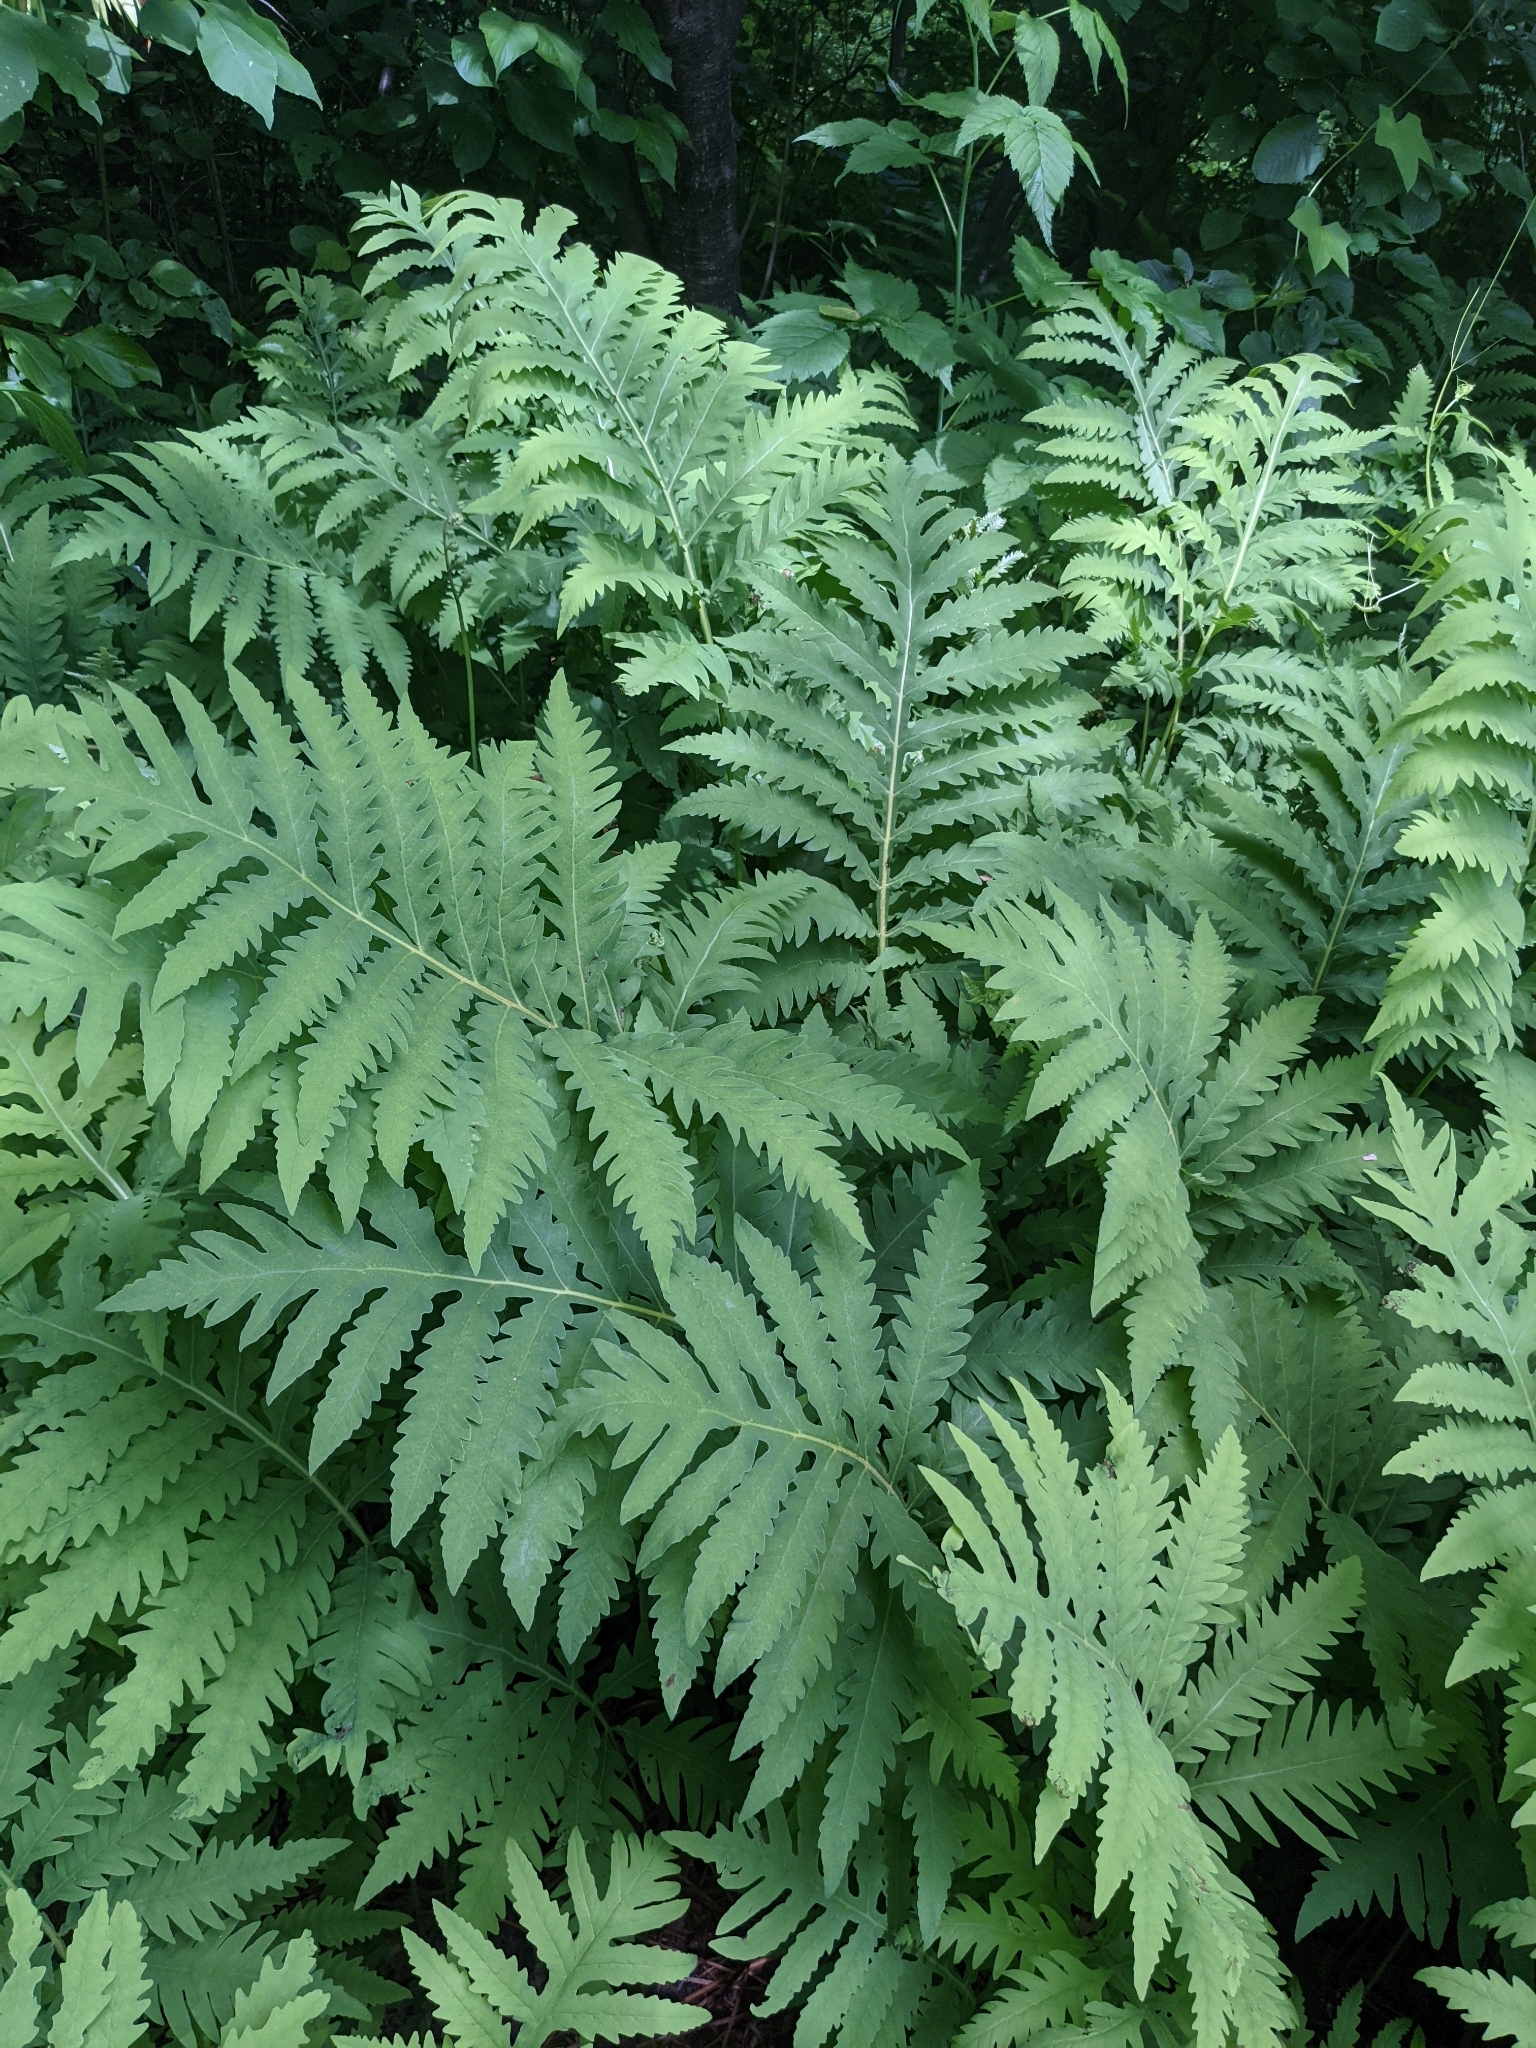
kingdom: Plantae
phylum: Tracheophyta
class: Polypodiopsida
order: Polypodiales
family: Onocleaceae
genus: Onoclea
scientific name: Onoclea sensibilis
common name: Sensitive fern
